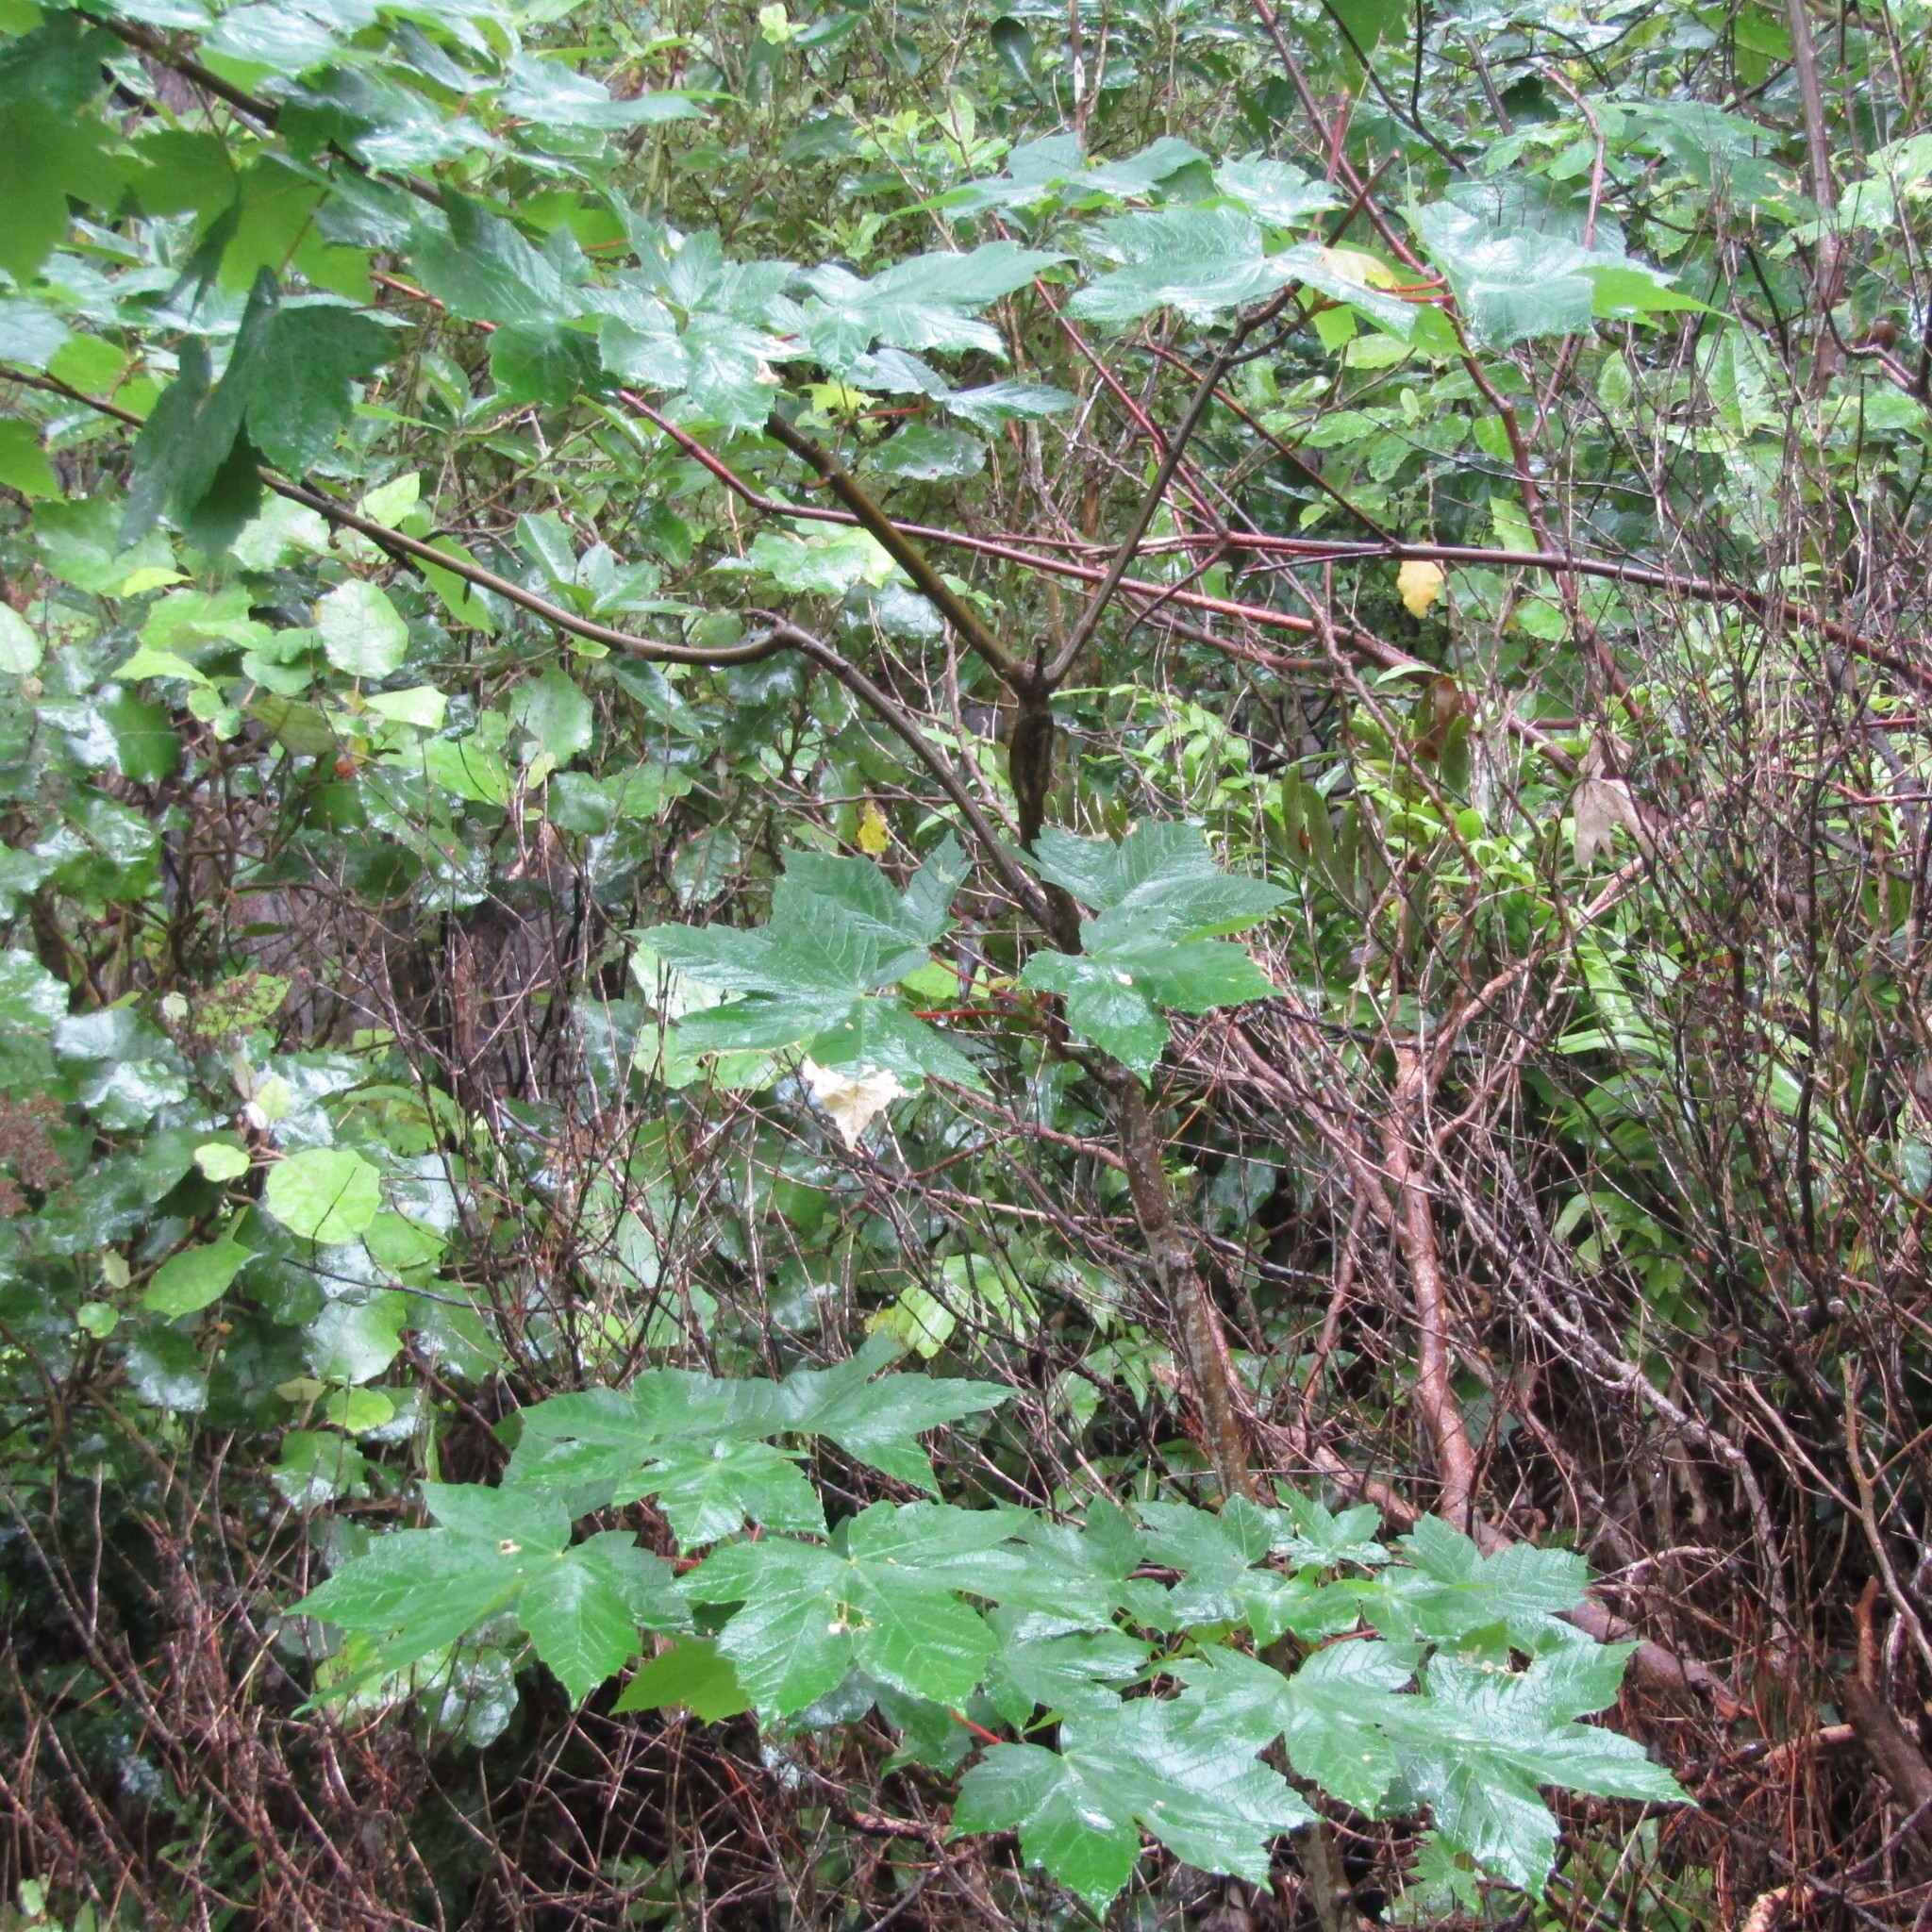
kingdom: Plantae
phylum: Tracheophyta
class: Magnoliopsida
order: Sapindales
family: Sapindaceae
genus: Acer
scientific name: Acer pseudoplatanus
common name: Sycamore
